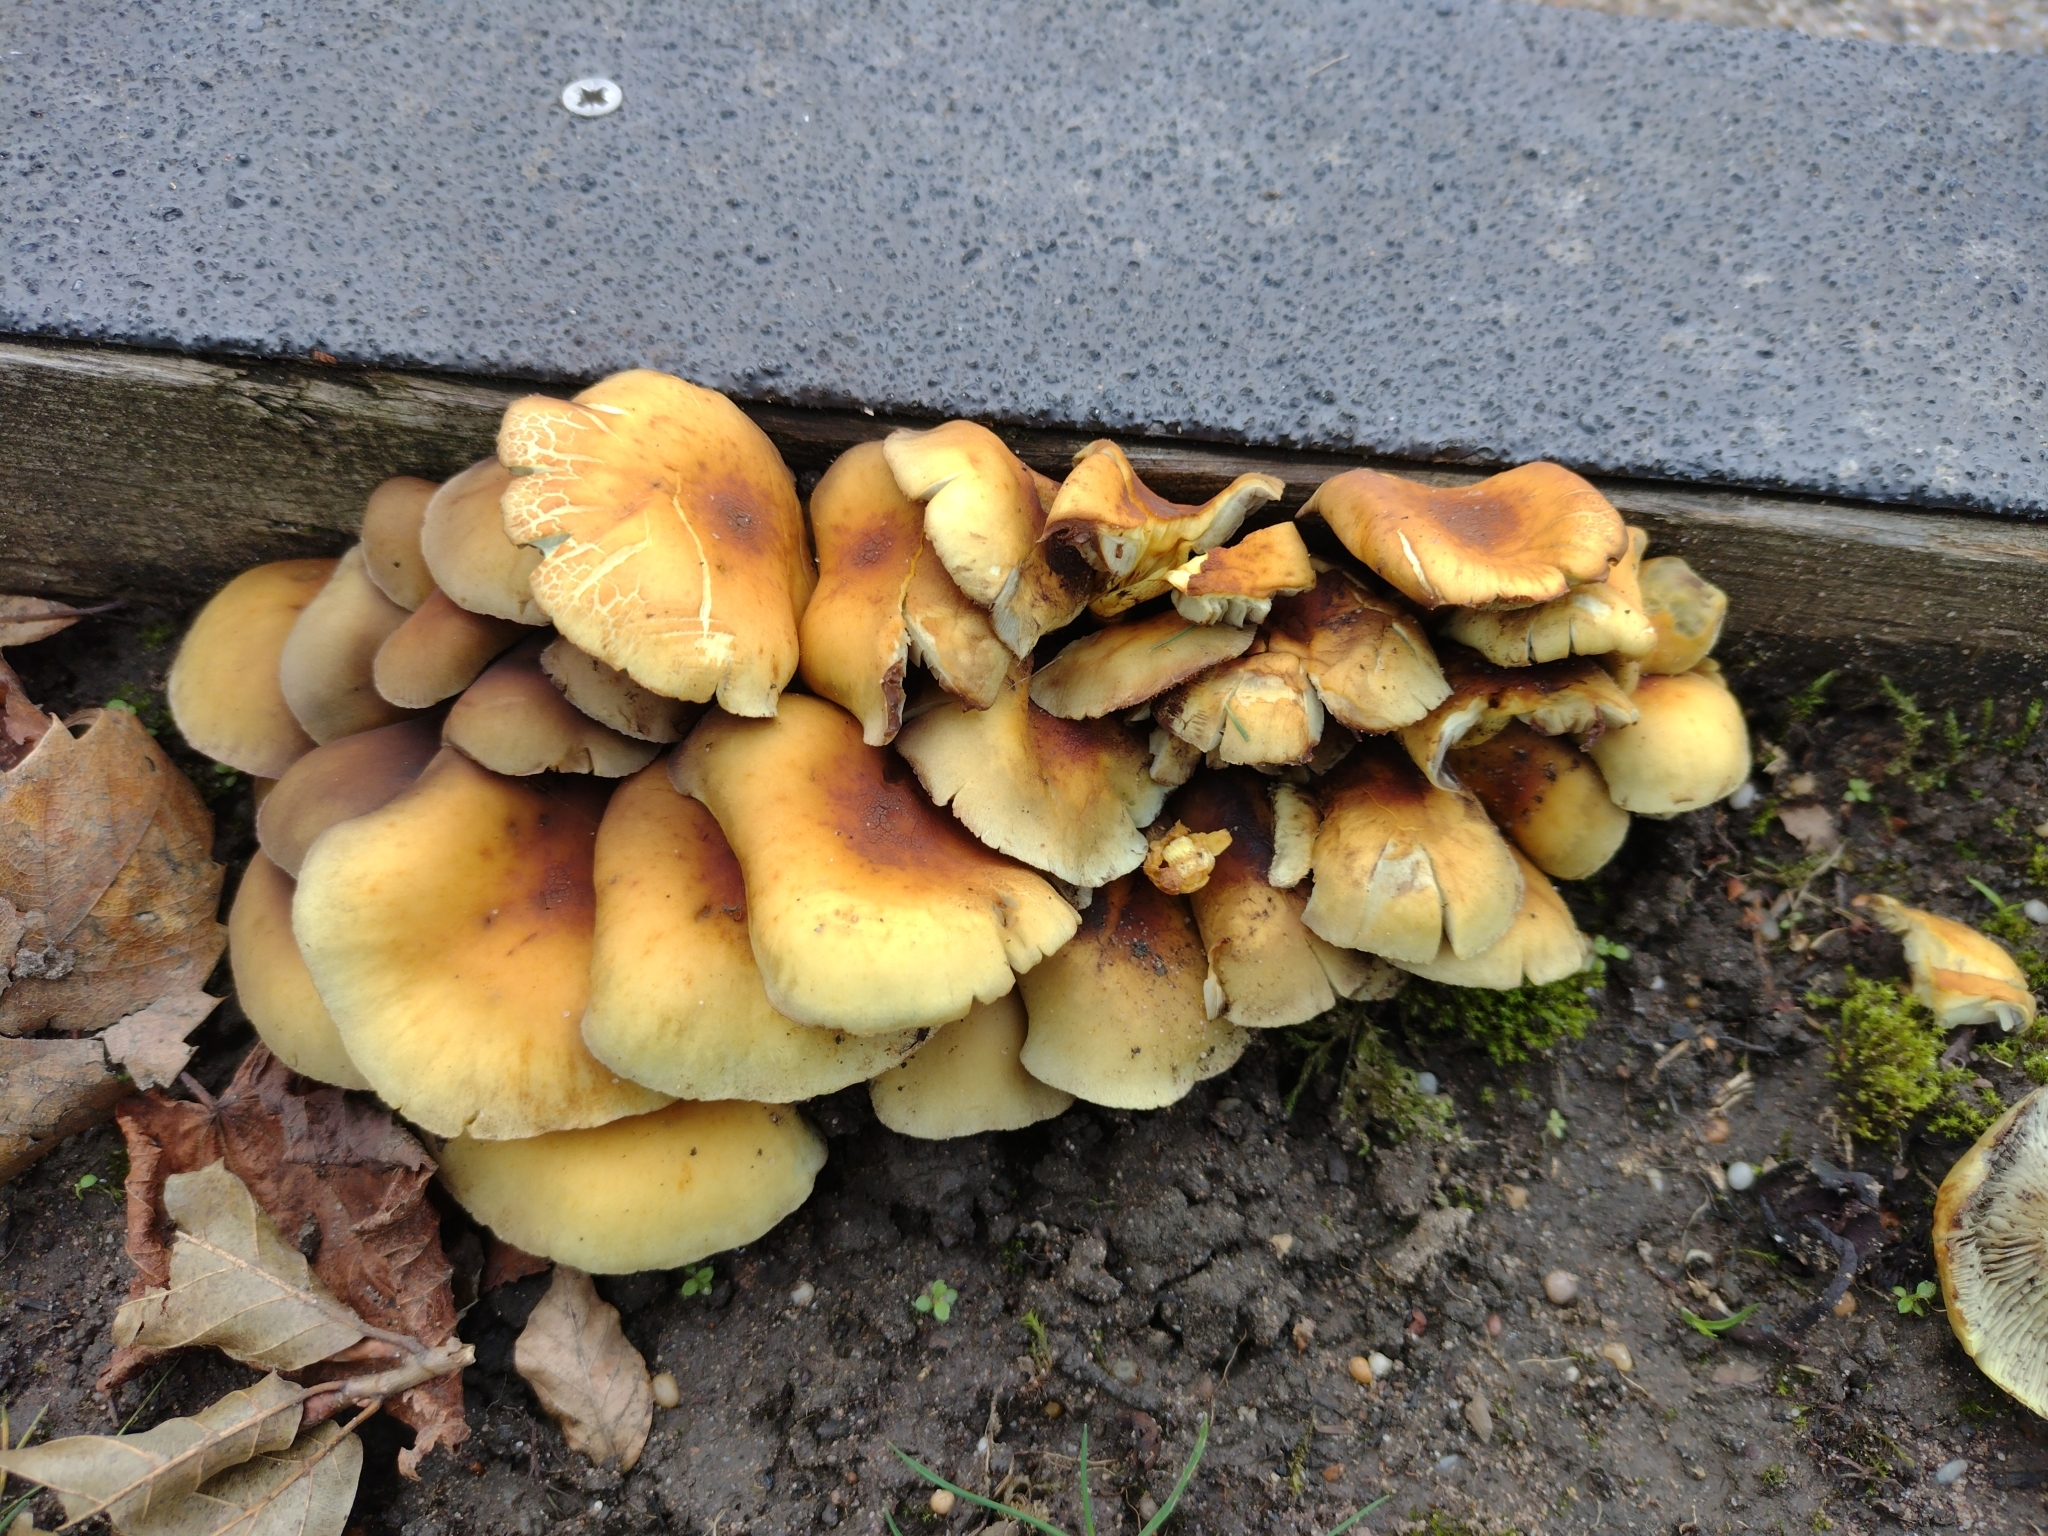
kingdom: Fungi
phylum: Basidiomycota
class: Agaricomycetes
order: Agaricales
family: Strophariaceae
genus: Hypholoma
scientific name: Hypholoma fasciculare
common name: Sulphur tuft
